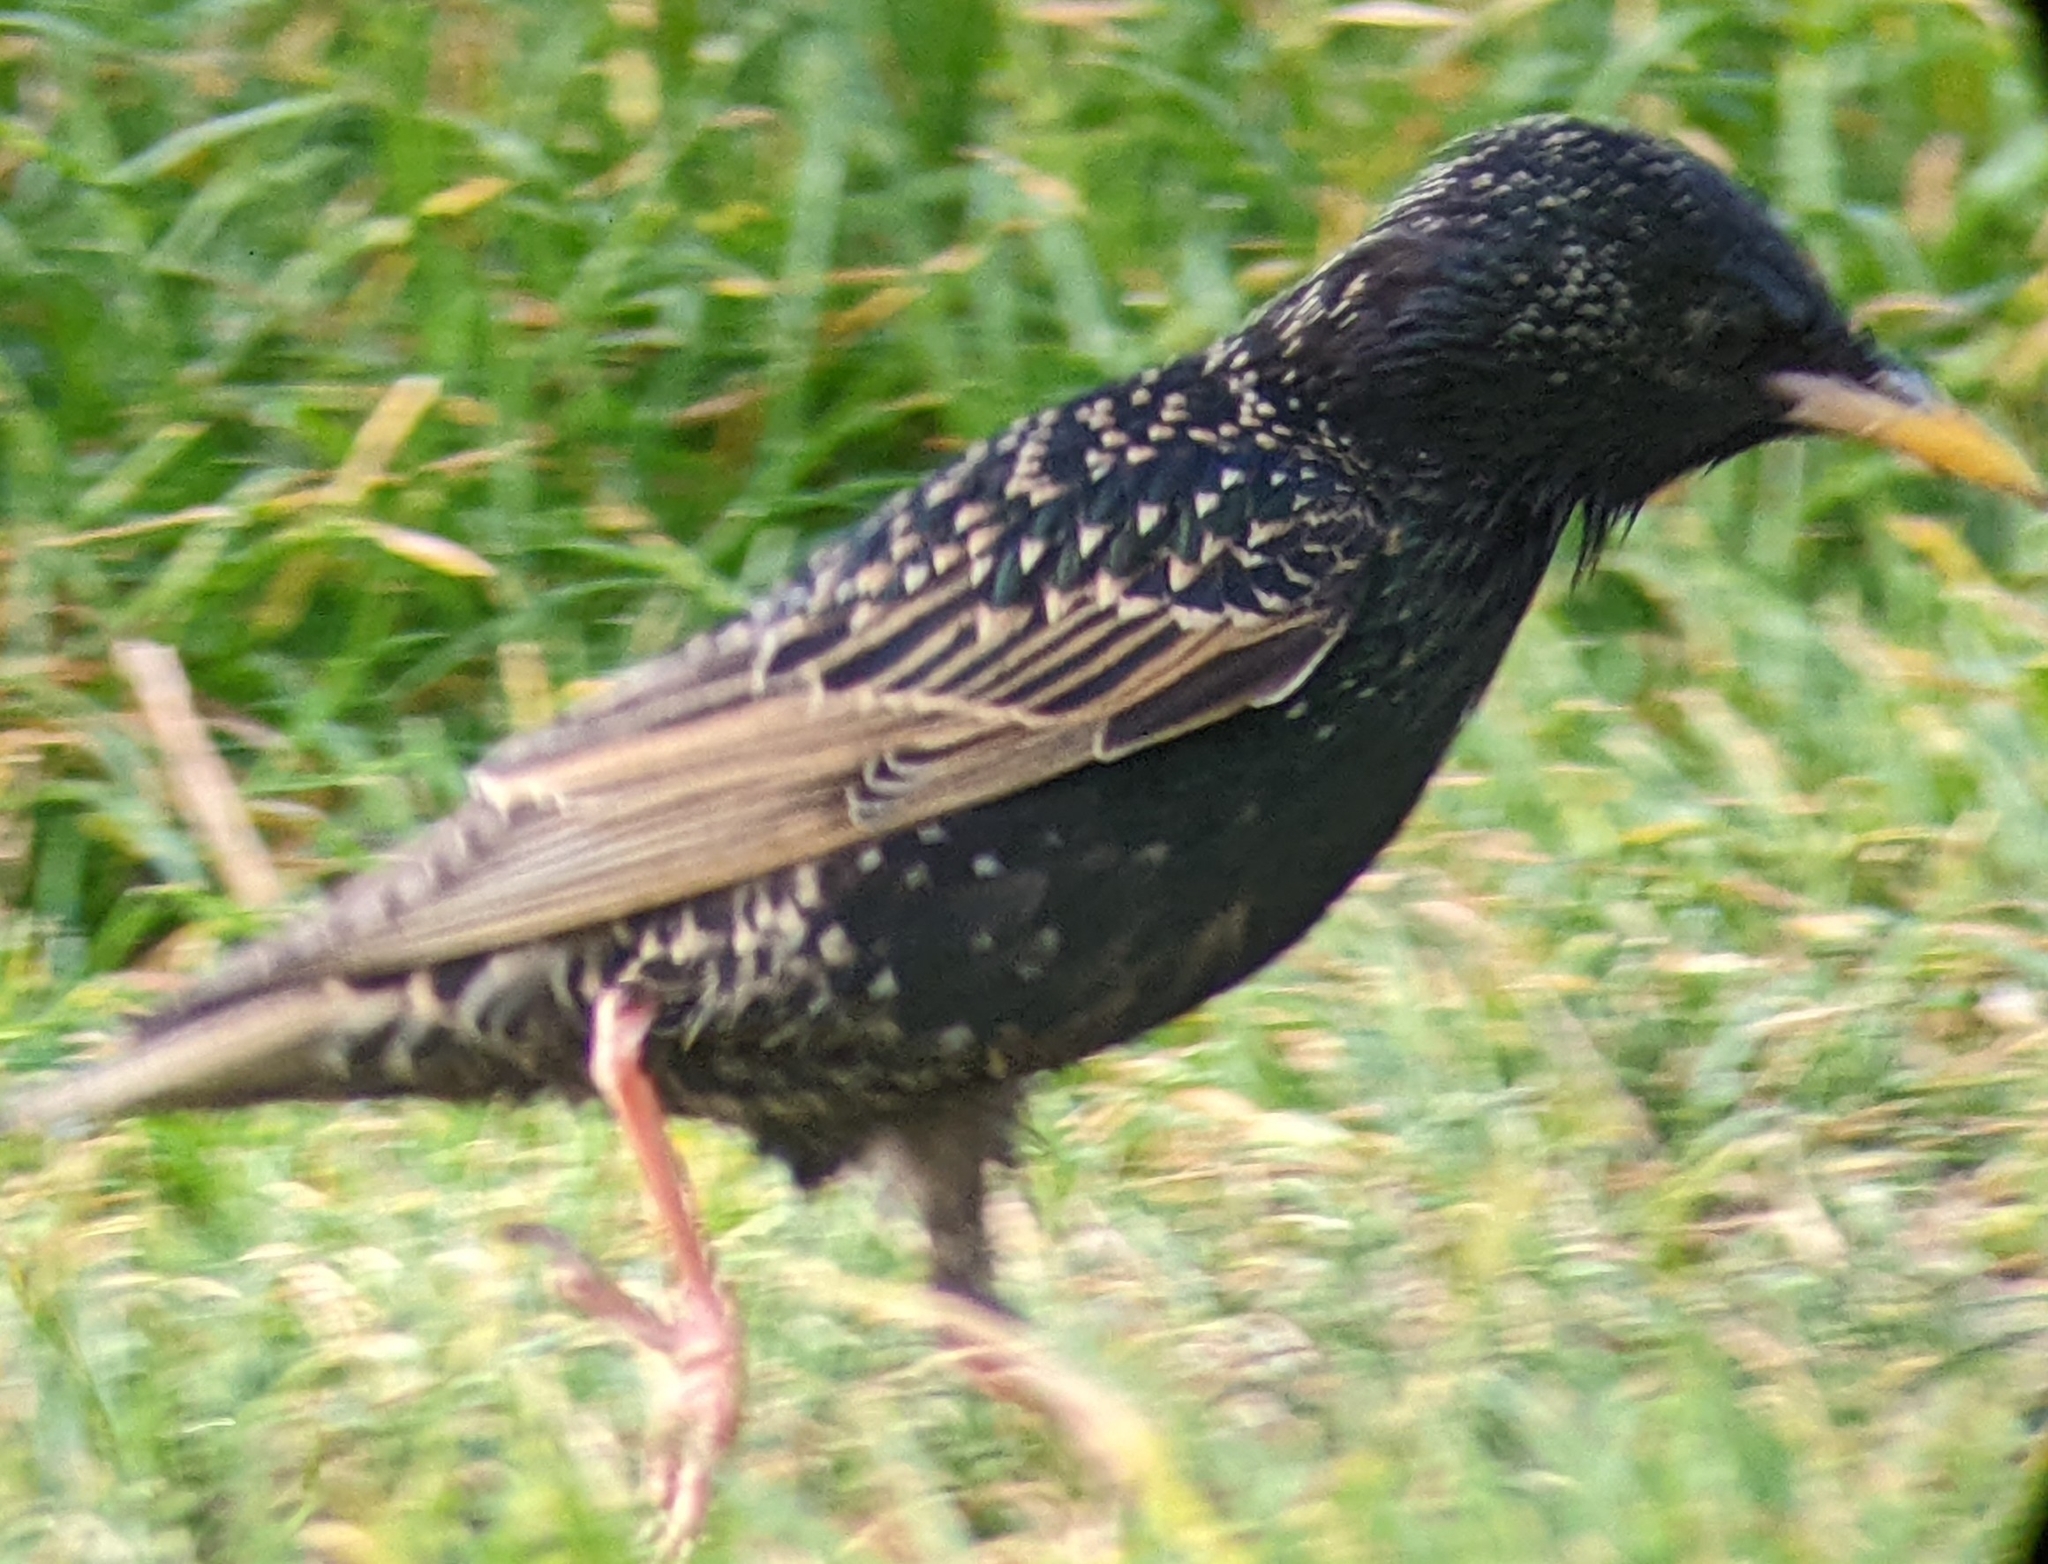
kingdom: Animalia
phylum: Chordata
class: Aves
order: Passeriformes
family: Sturnidae
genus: Sturnus
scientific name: Sturnus vulgaris
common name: Common starling
